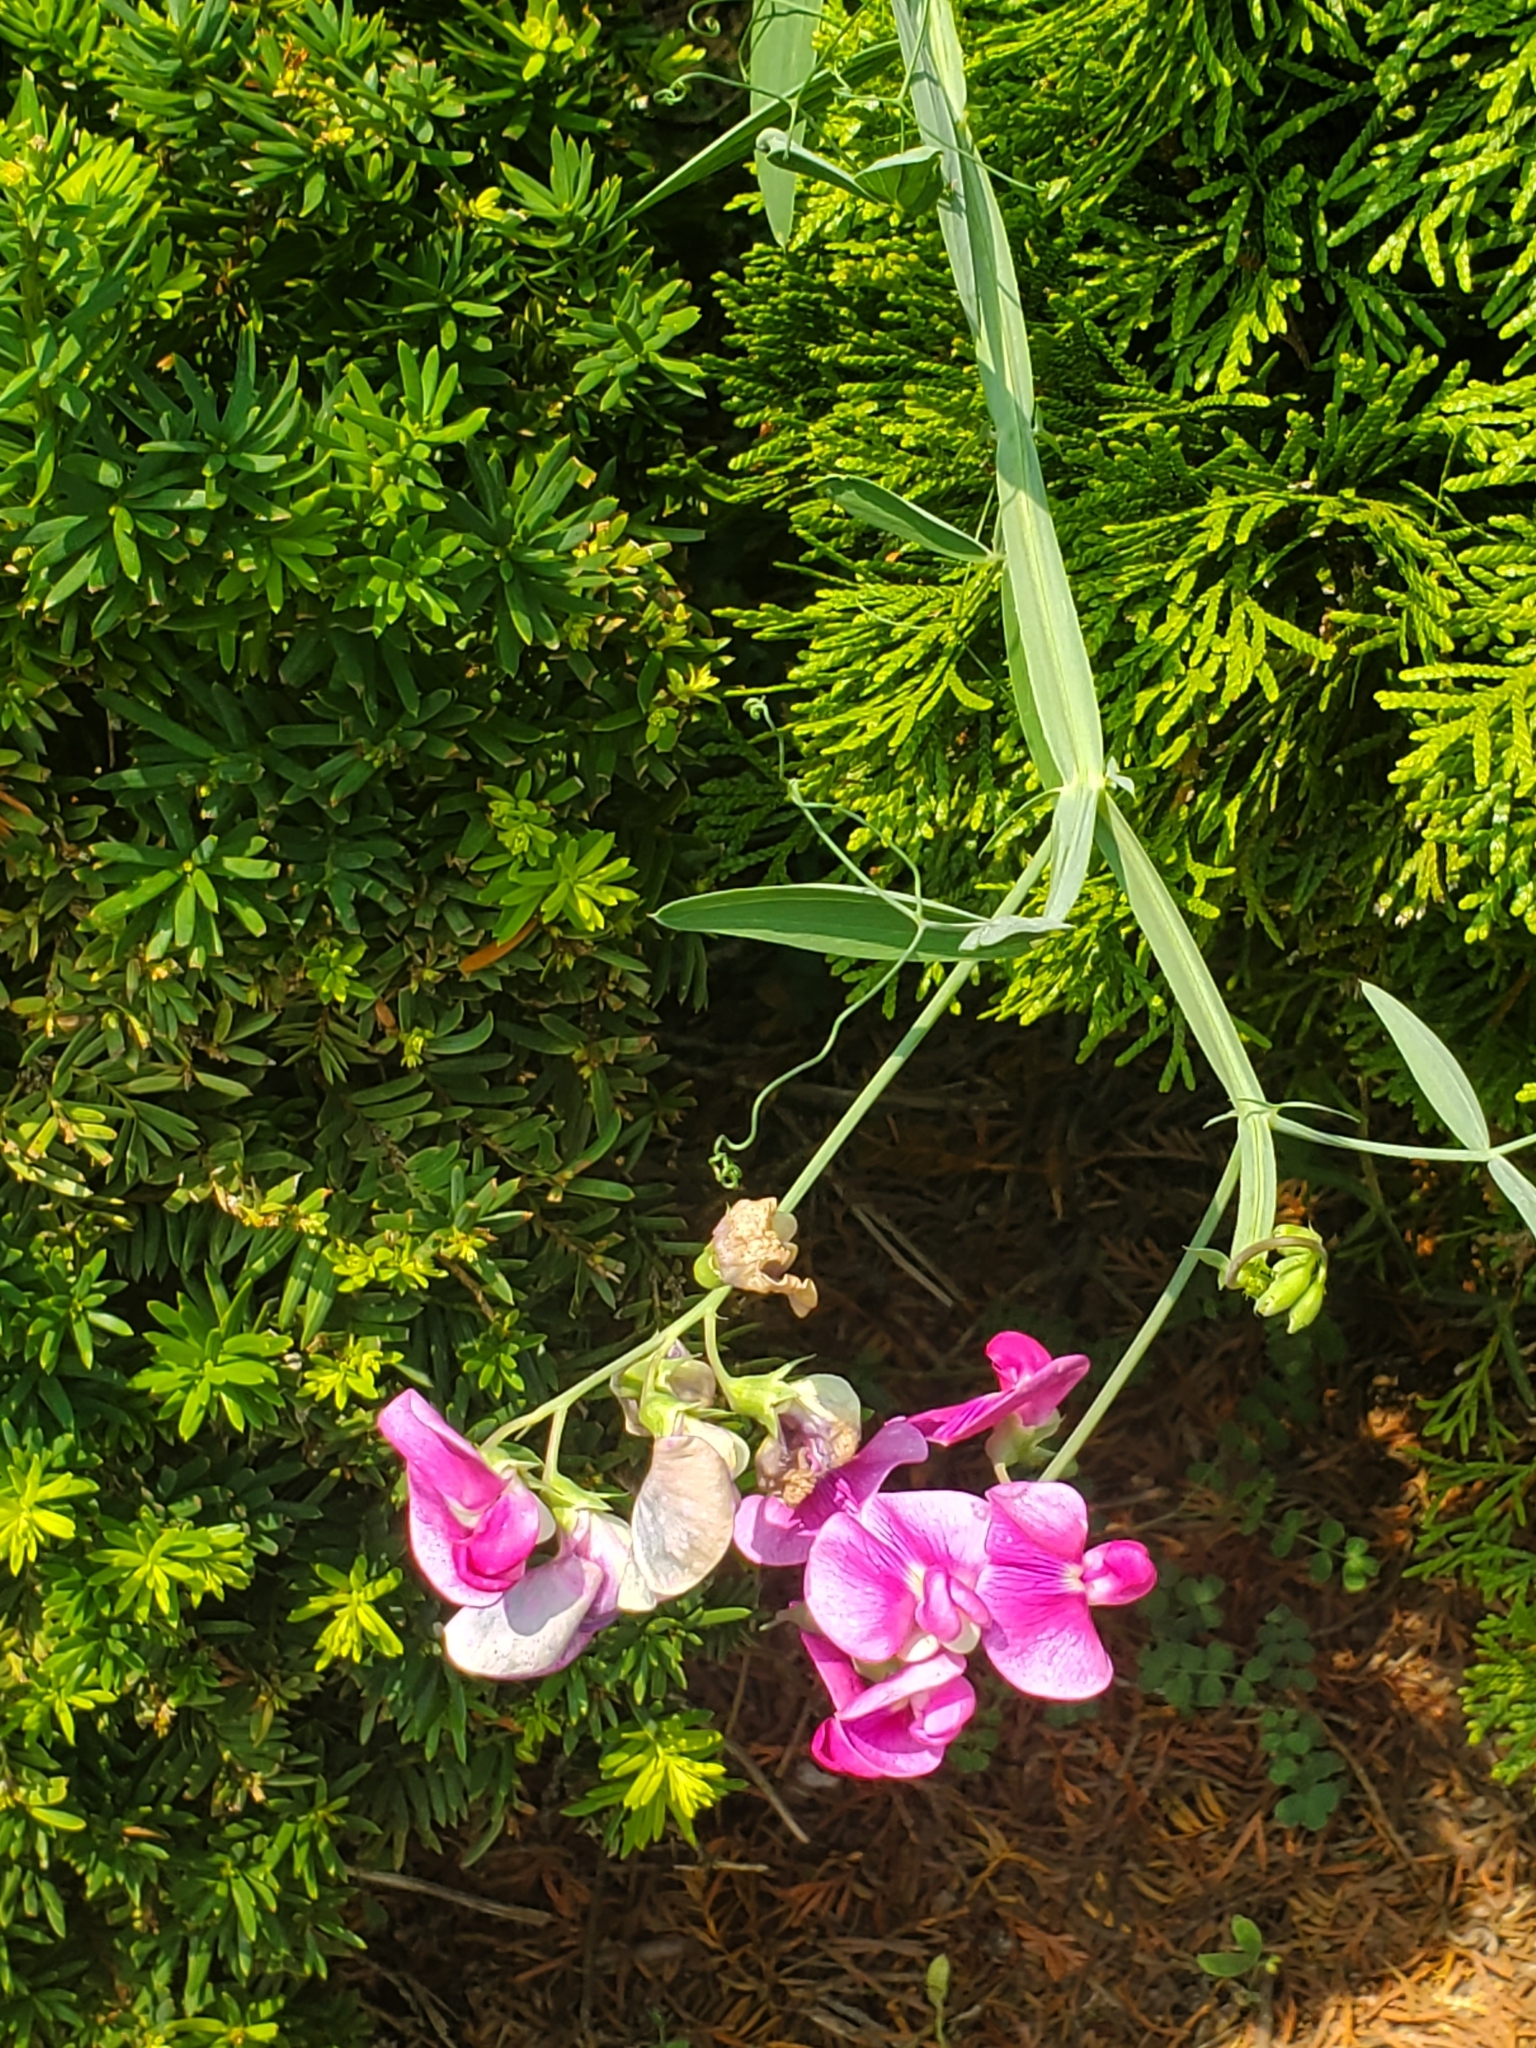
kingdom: Plantae
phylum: Tracheophyta
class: Magnoliopsida
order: Fabales
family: Fabaceae
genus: Lathyrus
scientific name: Lathyrus latifolius
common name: Perennial pea
